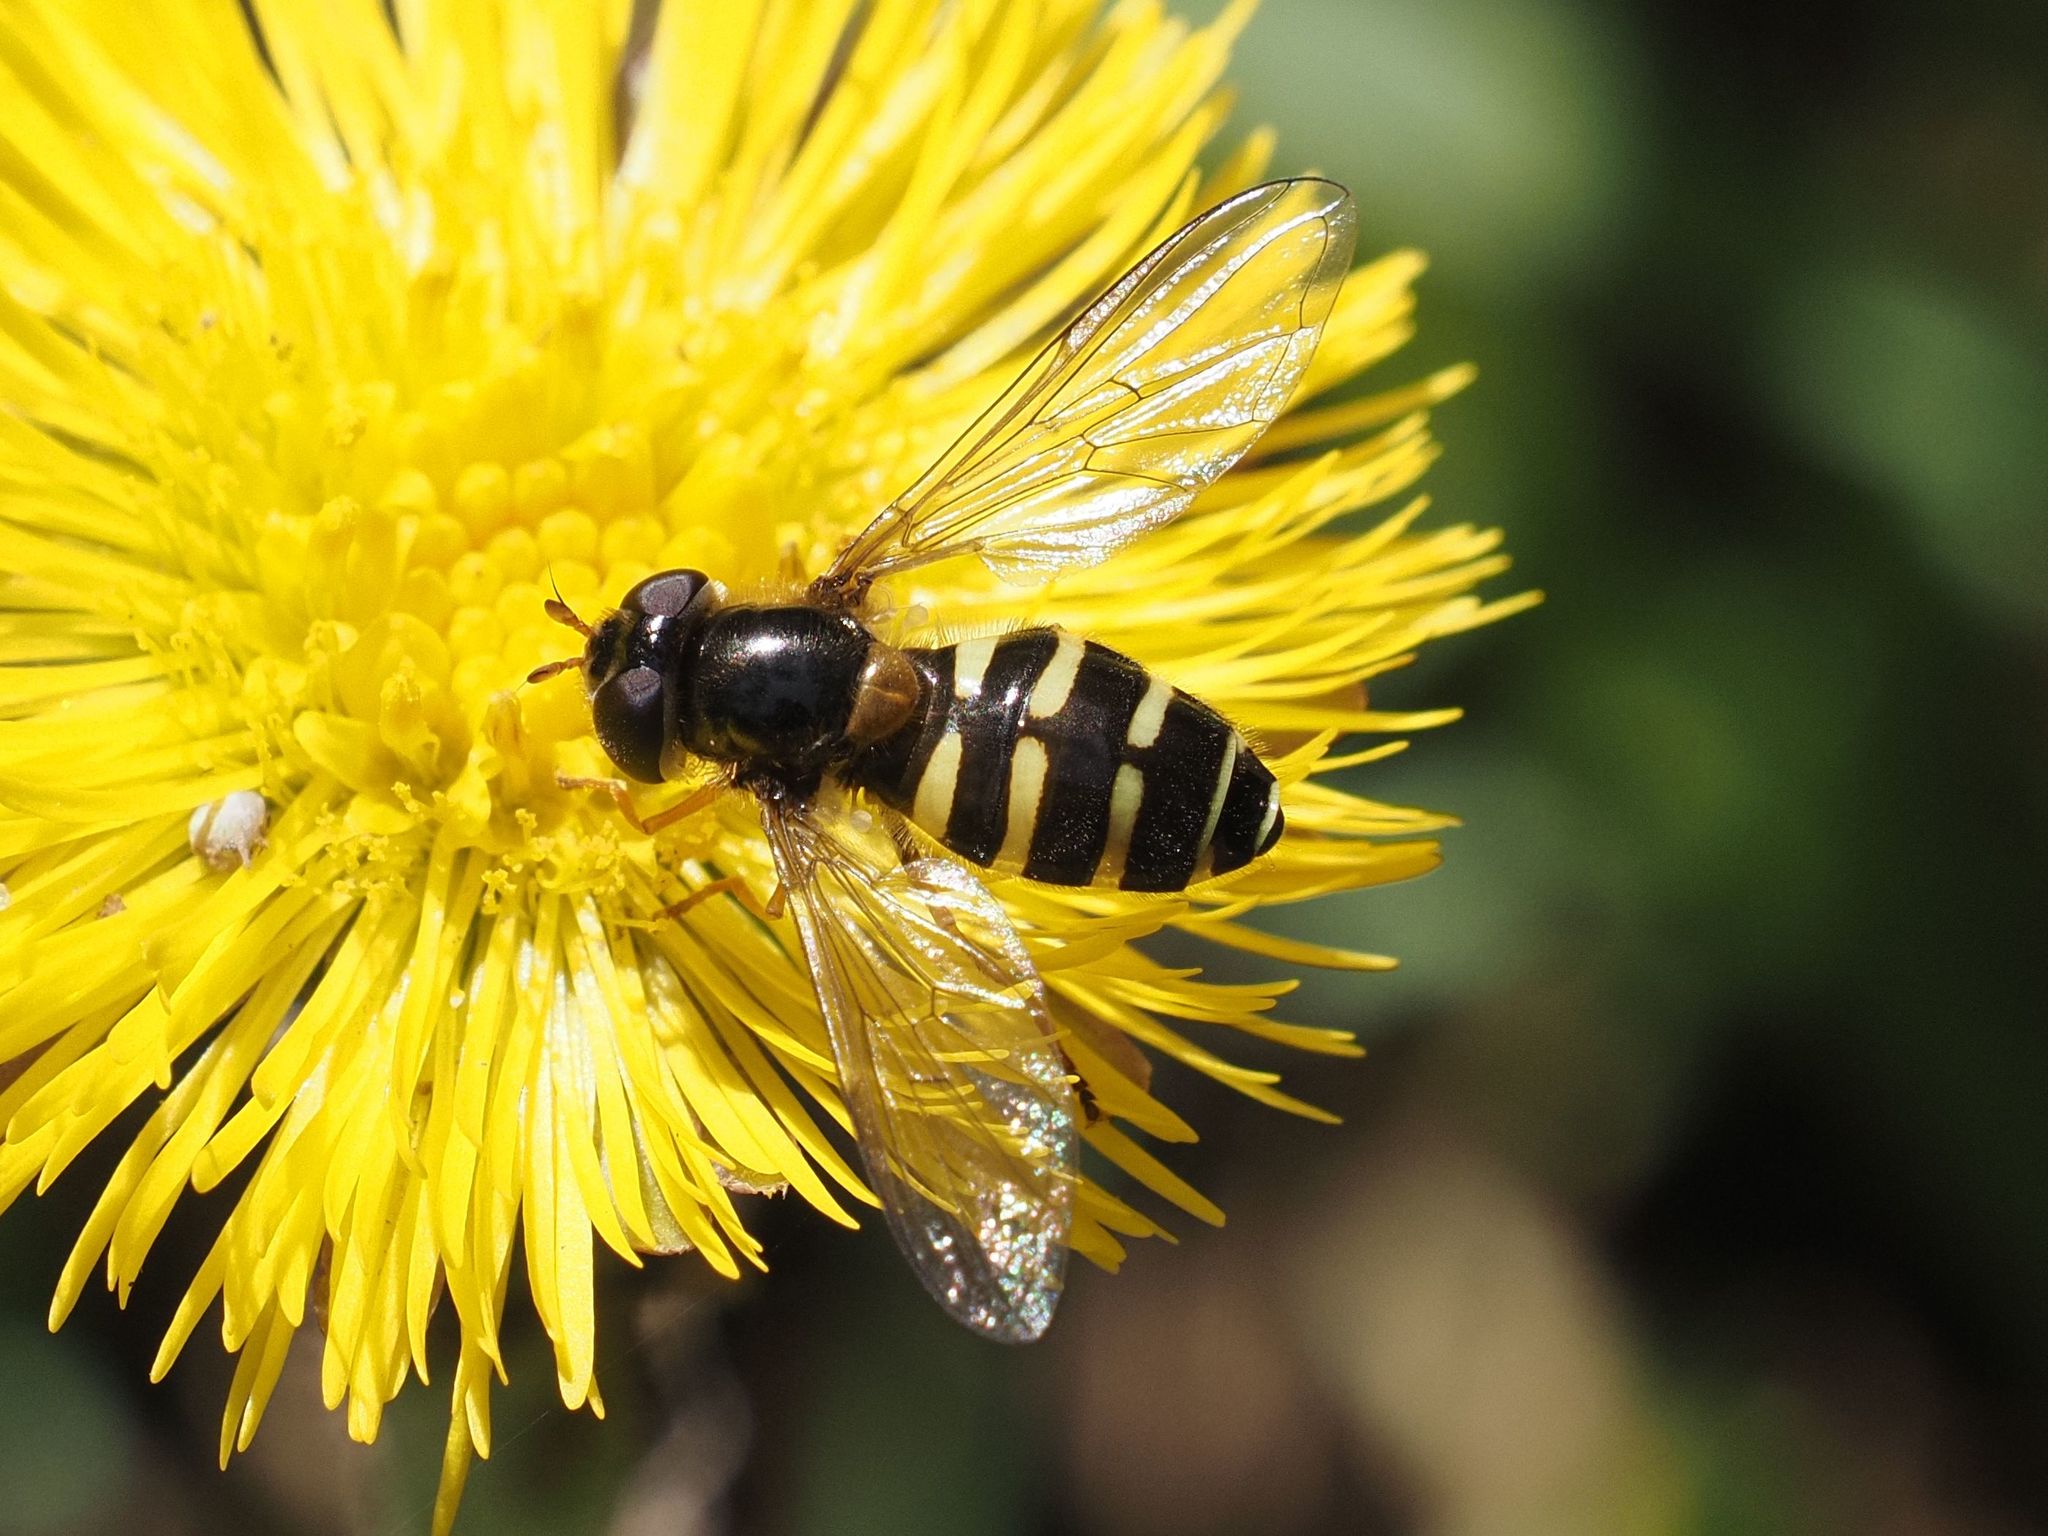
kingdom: Animalia
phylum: Arthropoda
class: Insecta
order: Diptera
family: Syrphidae
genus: Dasysyrphus
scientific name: Dasysyrphus
